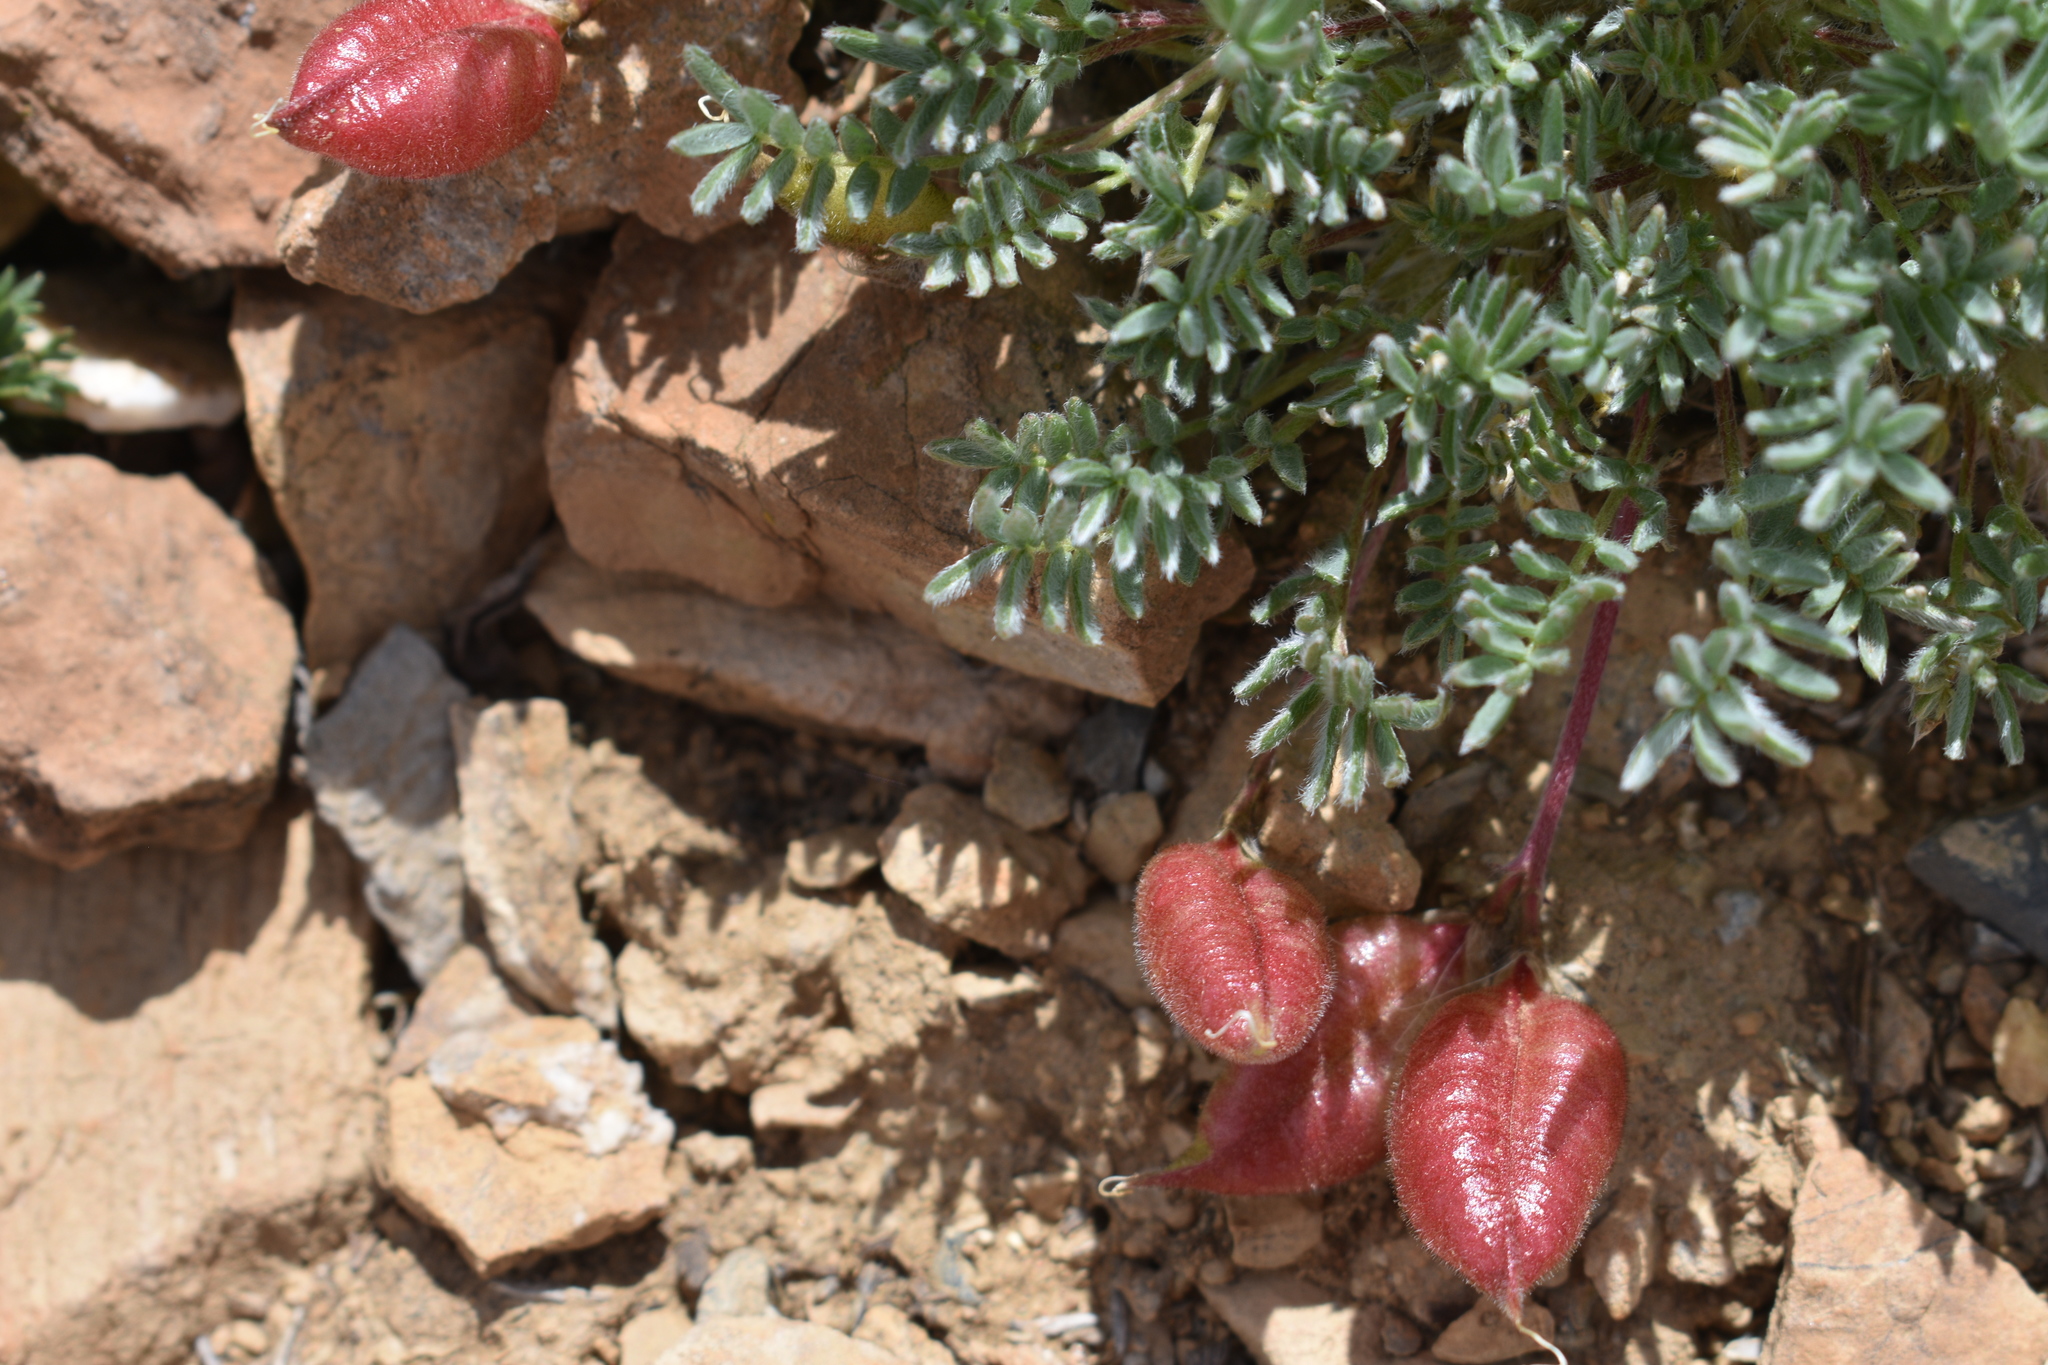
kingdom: Plantae
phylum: Tracheophyta
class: Magnoliopsida
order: Fabales
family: Fabaceae
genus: Oxytropis
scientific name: Oxytropis podocarpa
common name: Gray's oxytrope
